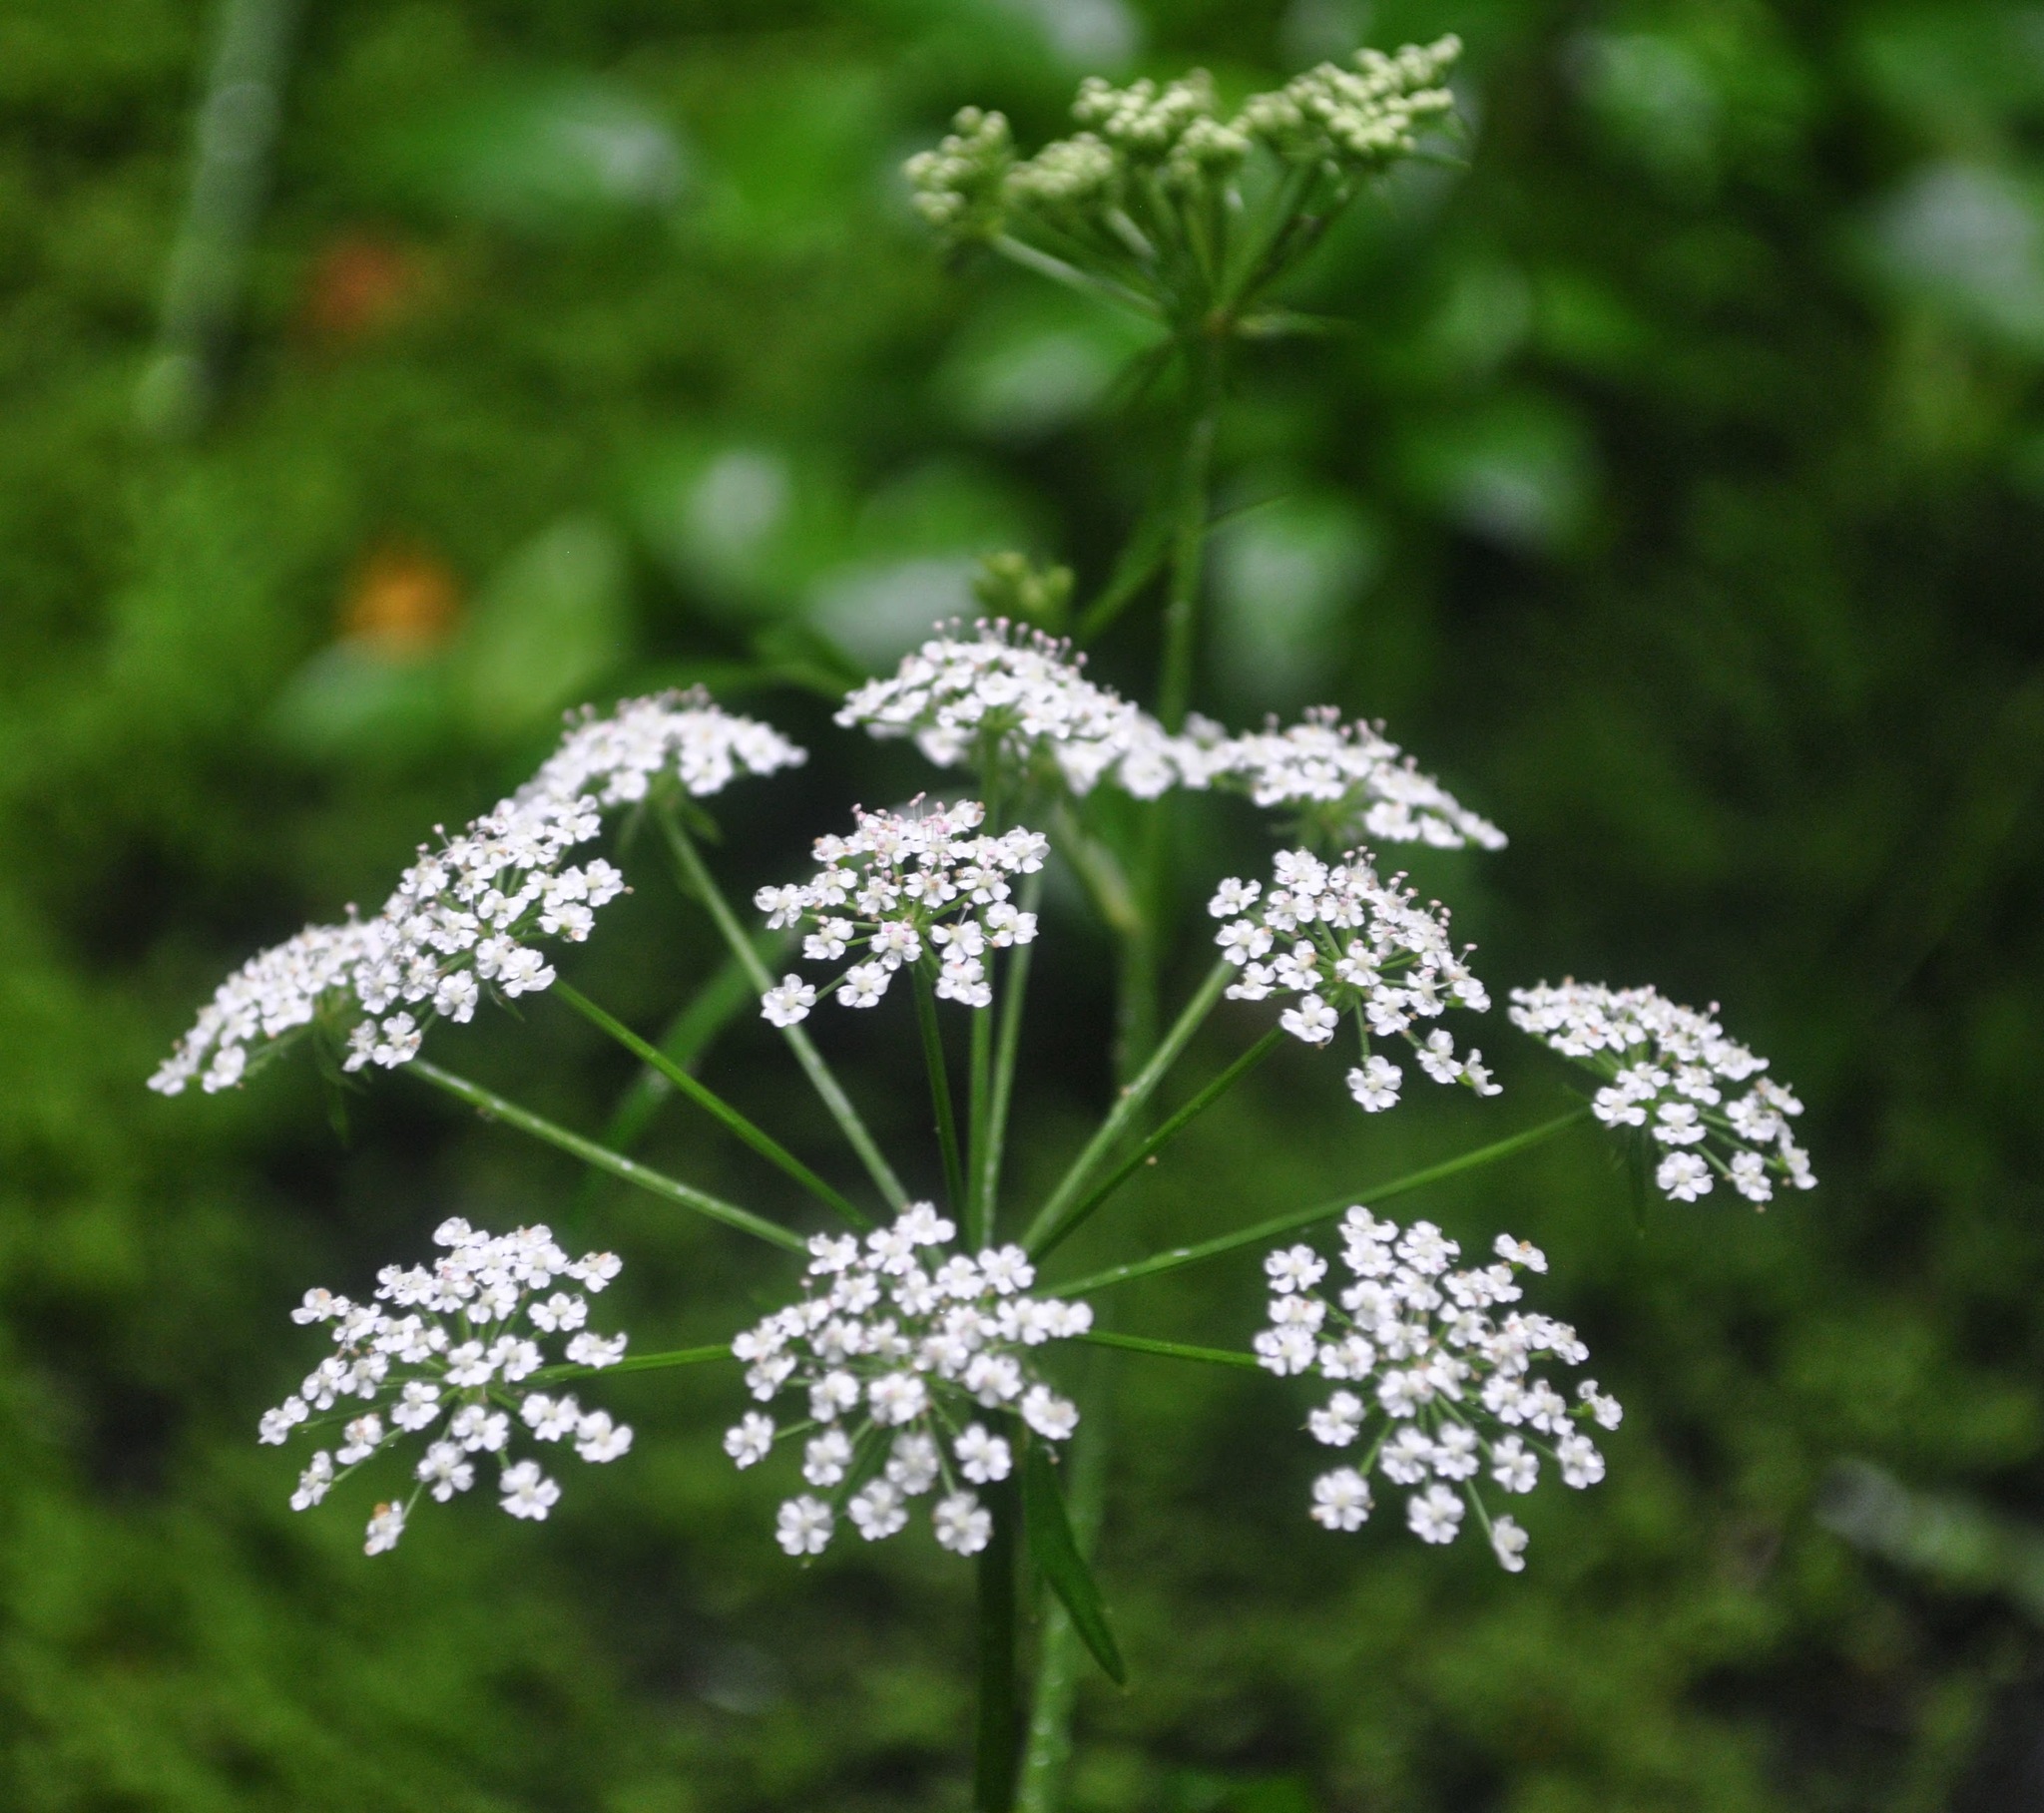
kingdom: Plantae
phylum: Tracheophyta
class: Magnoliopsida
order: Apiales
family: Apiaceae
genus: Sium
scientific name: Sium suave
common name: Hemlock water-parsnip
